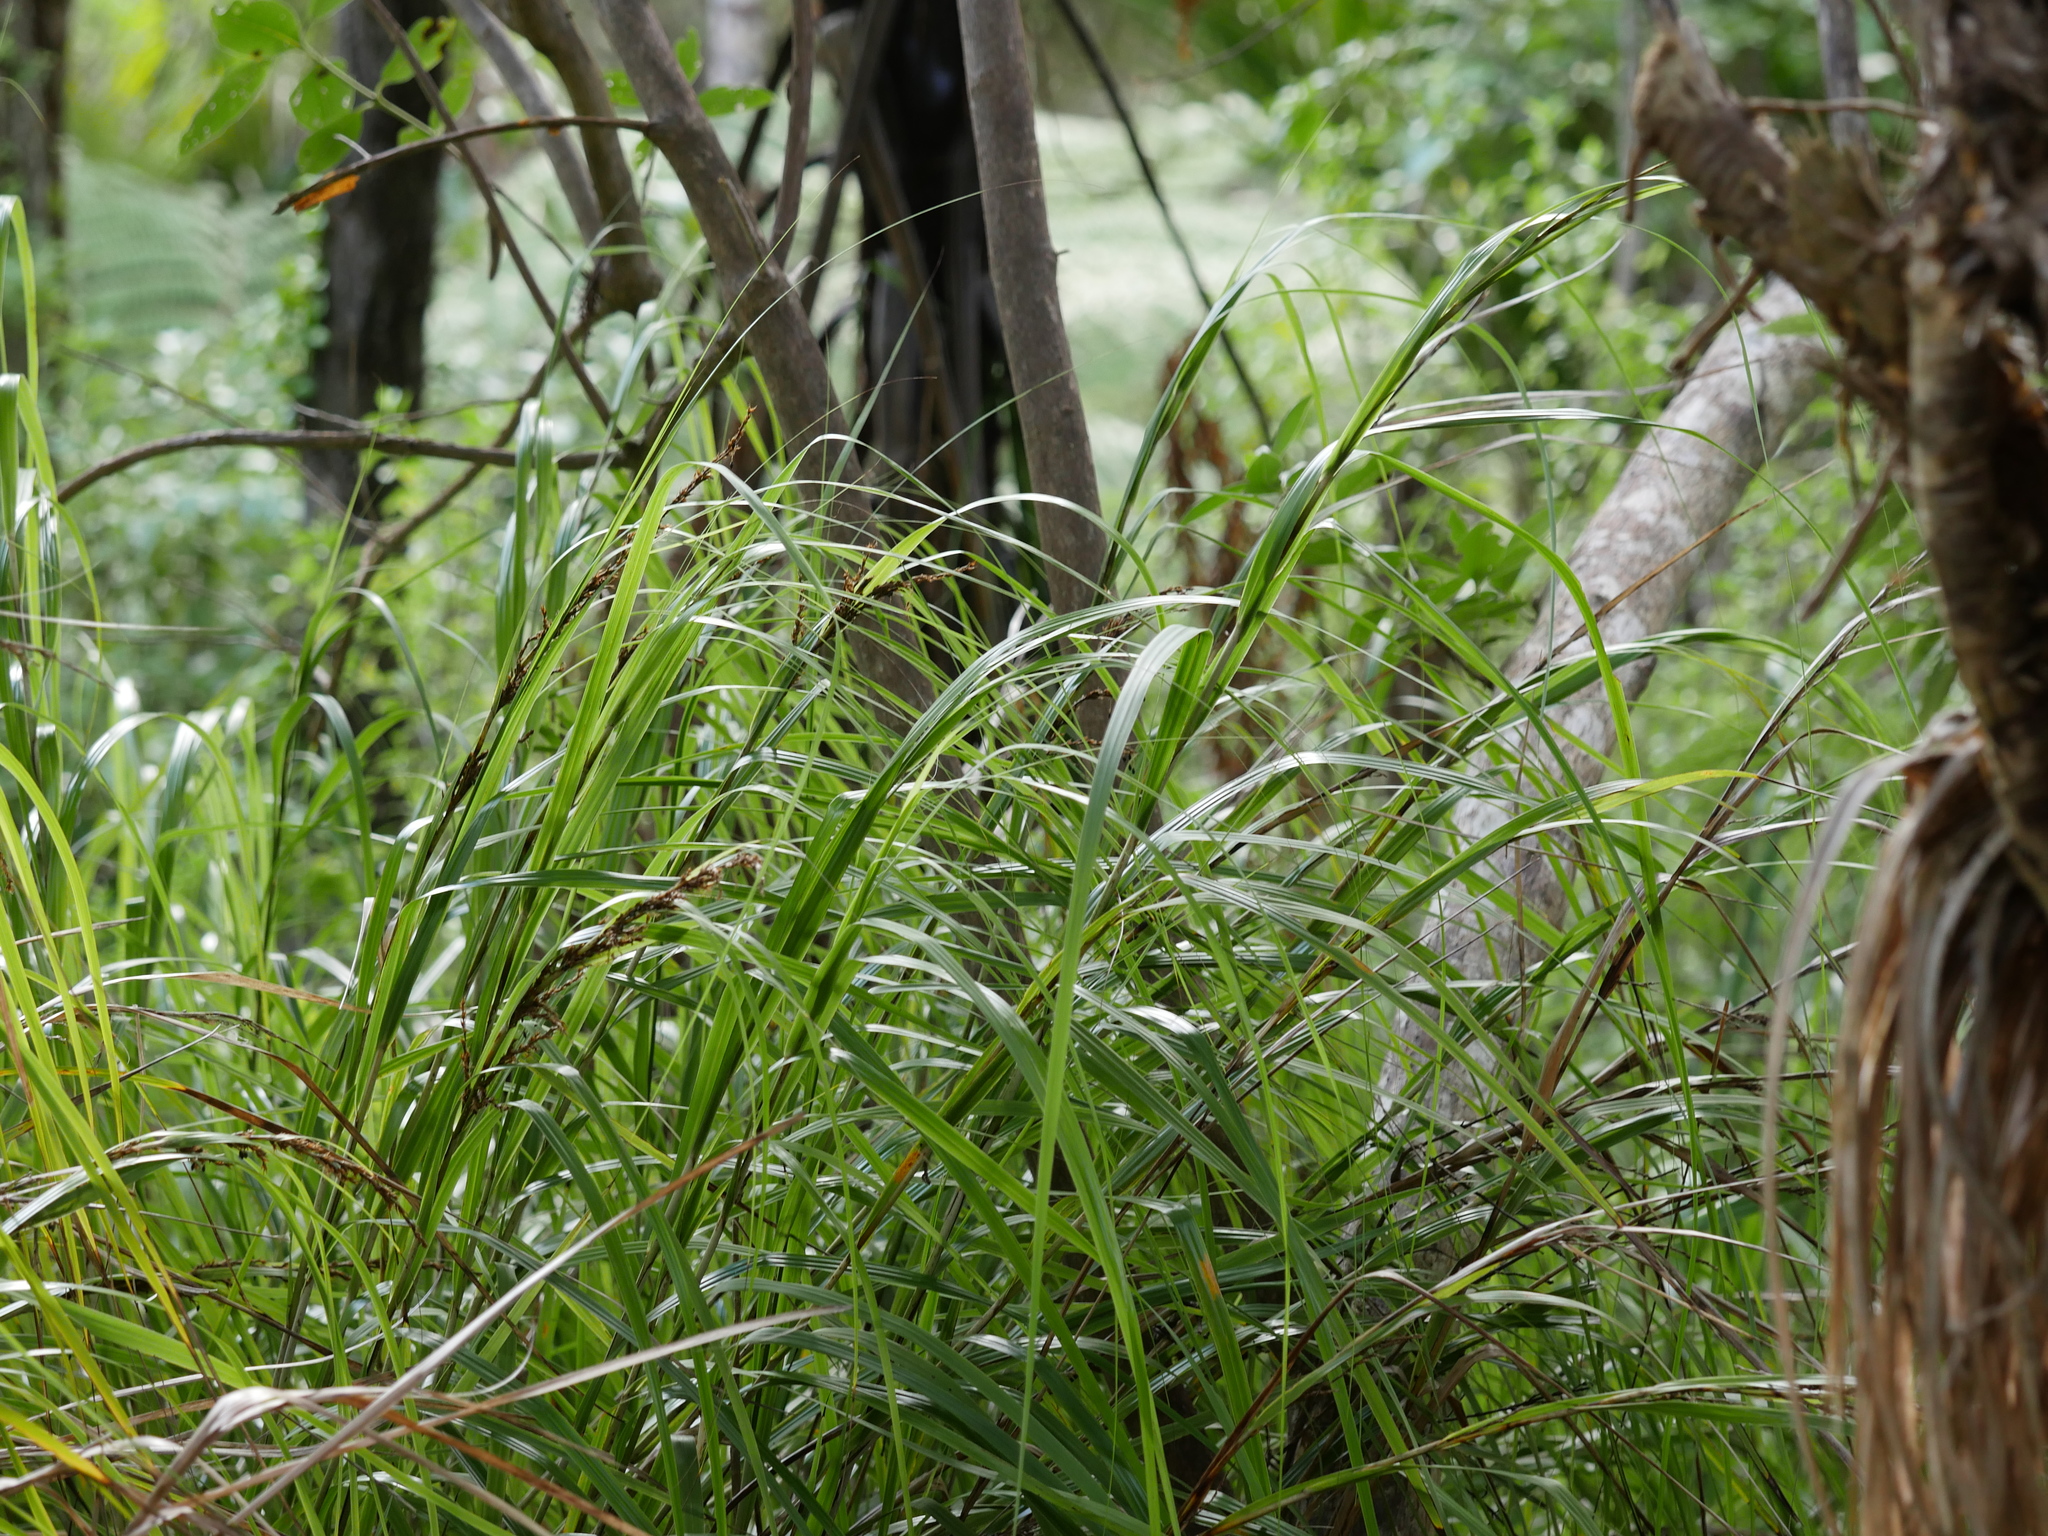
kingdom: Plantae
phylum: Tracheophyta
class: Liliopsida
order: Poales
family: Cyperaceae
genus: Gahnia
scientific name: Gahnia lacera
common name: Sawsedge
